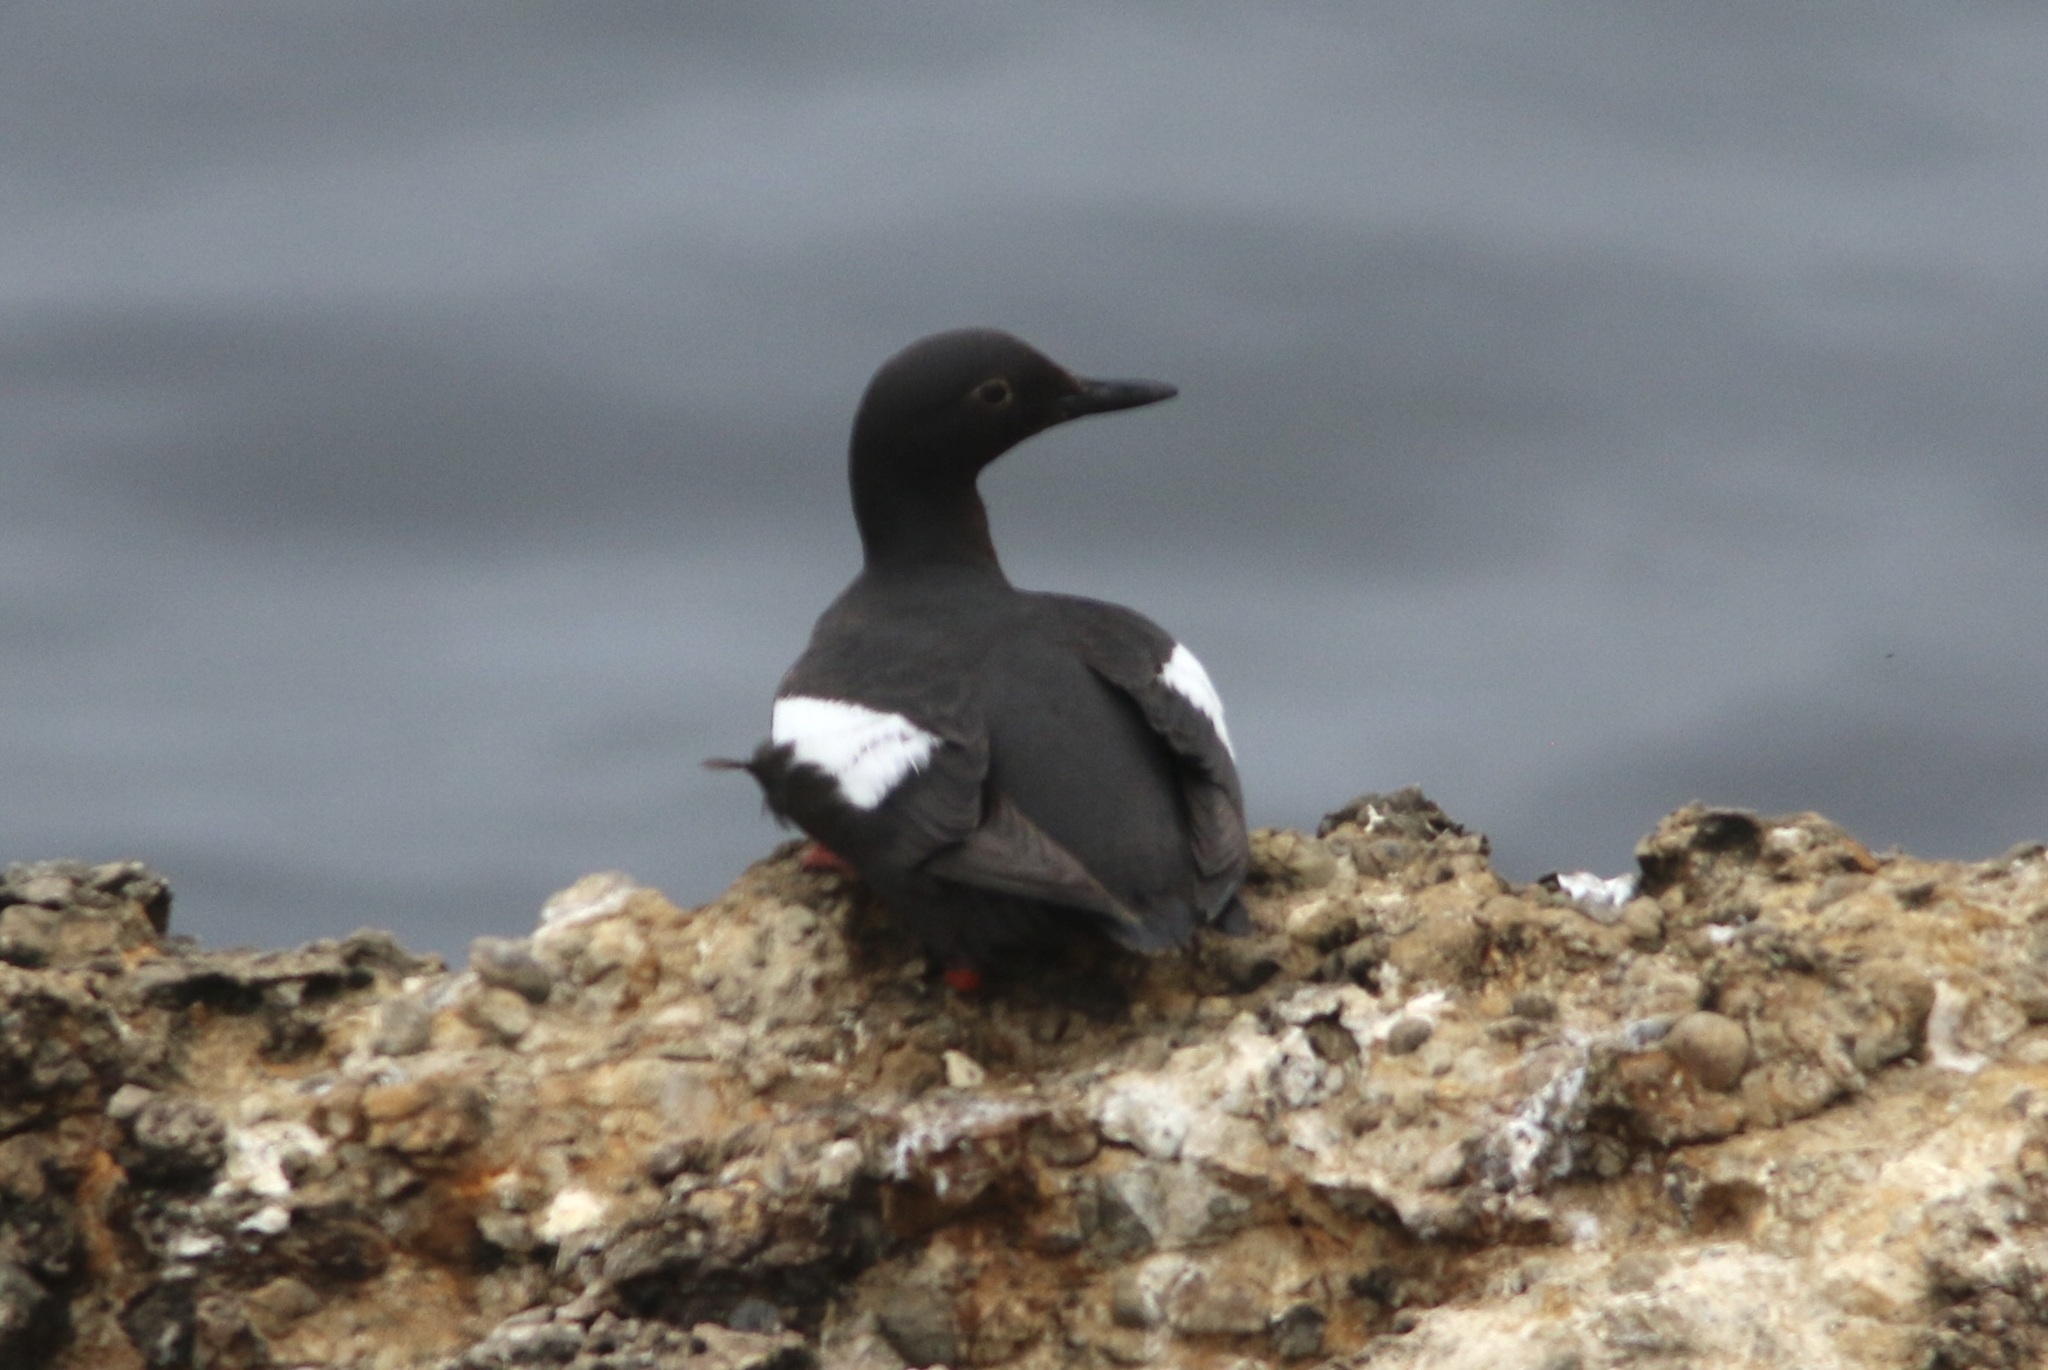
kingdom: Animalia
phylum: Chordata
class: Aves
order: Charadriiformes
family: Alcidae
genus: Cepphus
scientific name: Cepphus columba
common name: Pigeon guillemot
